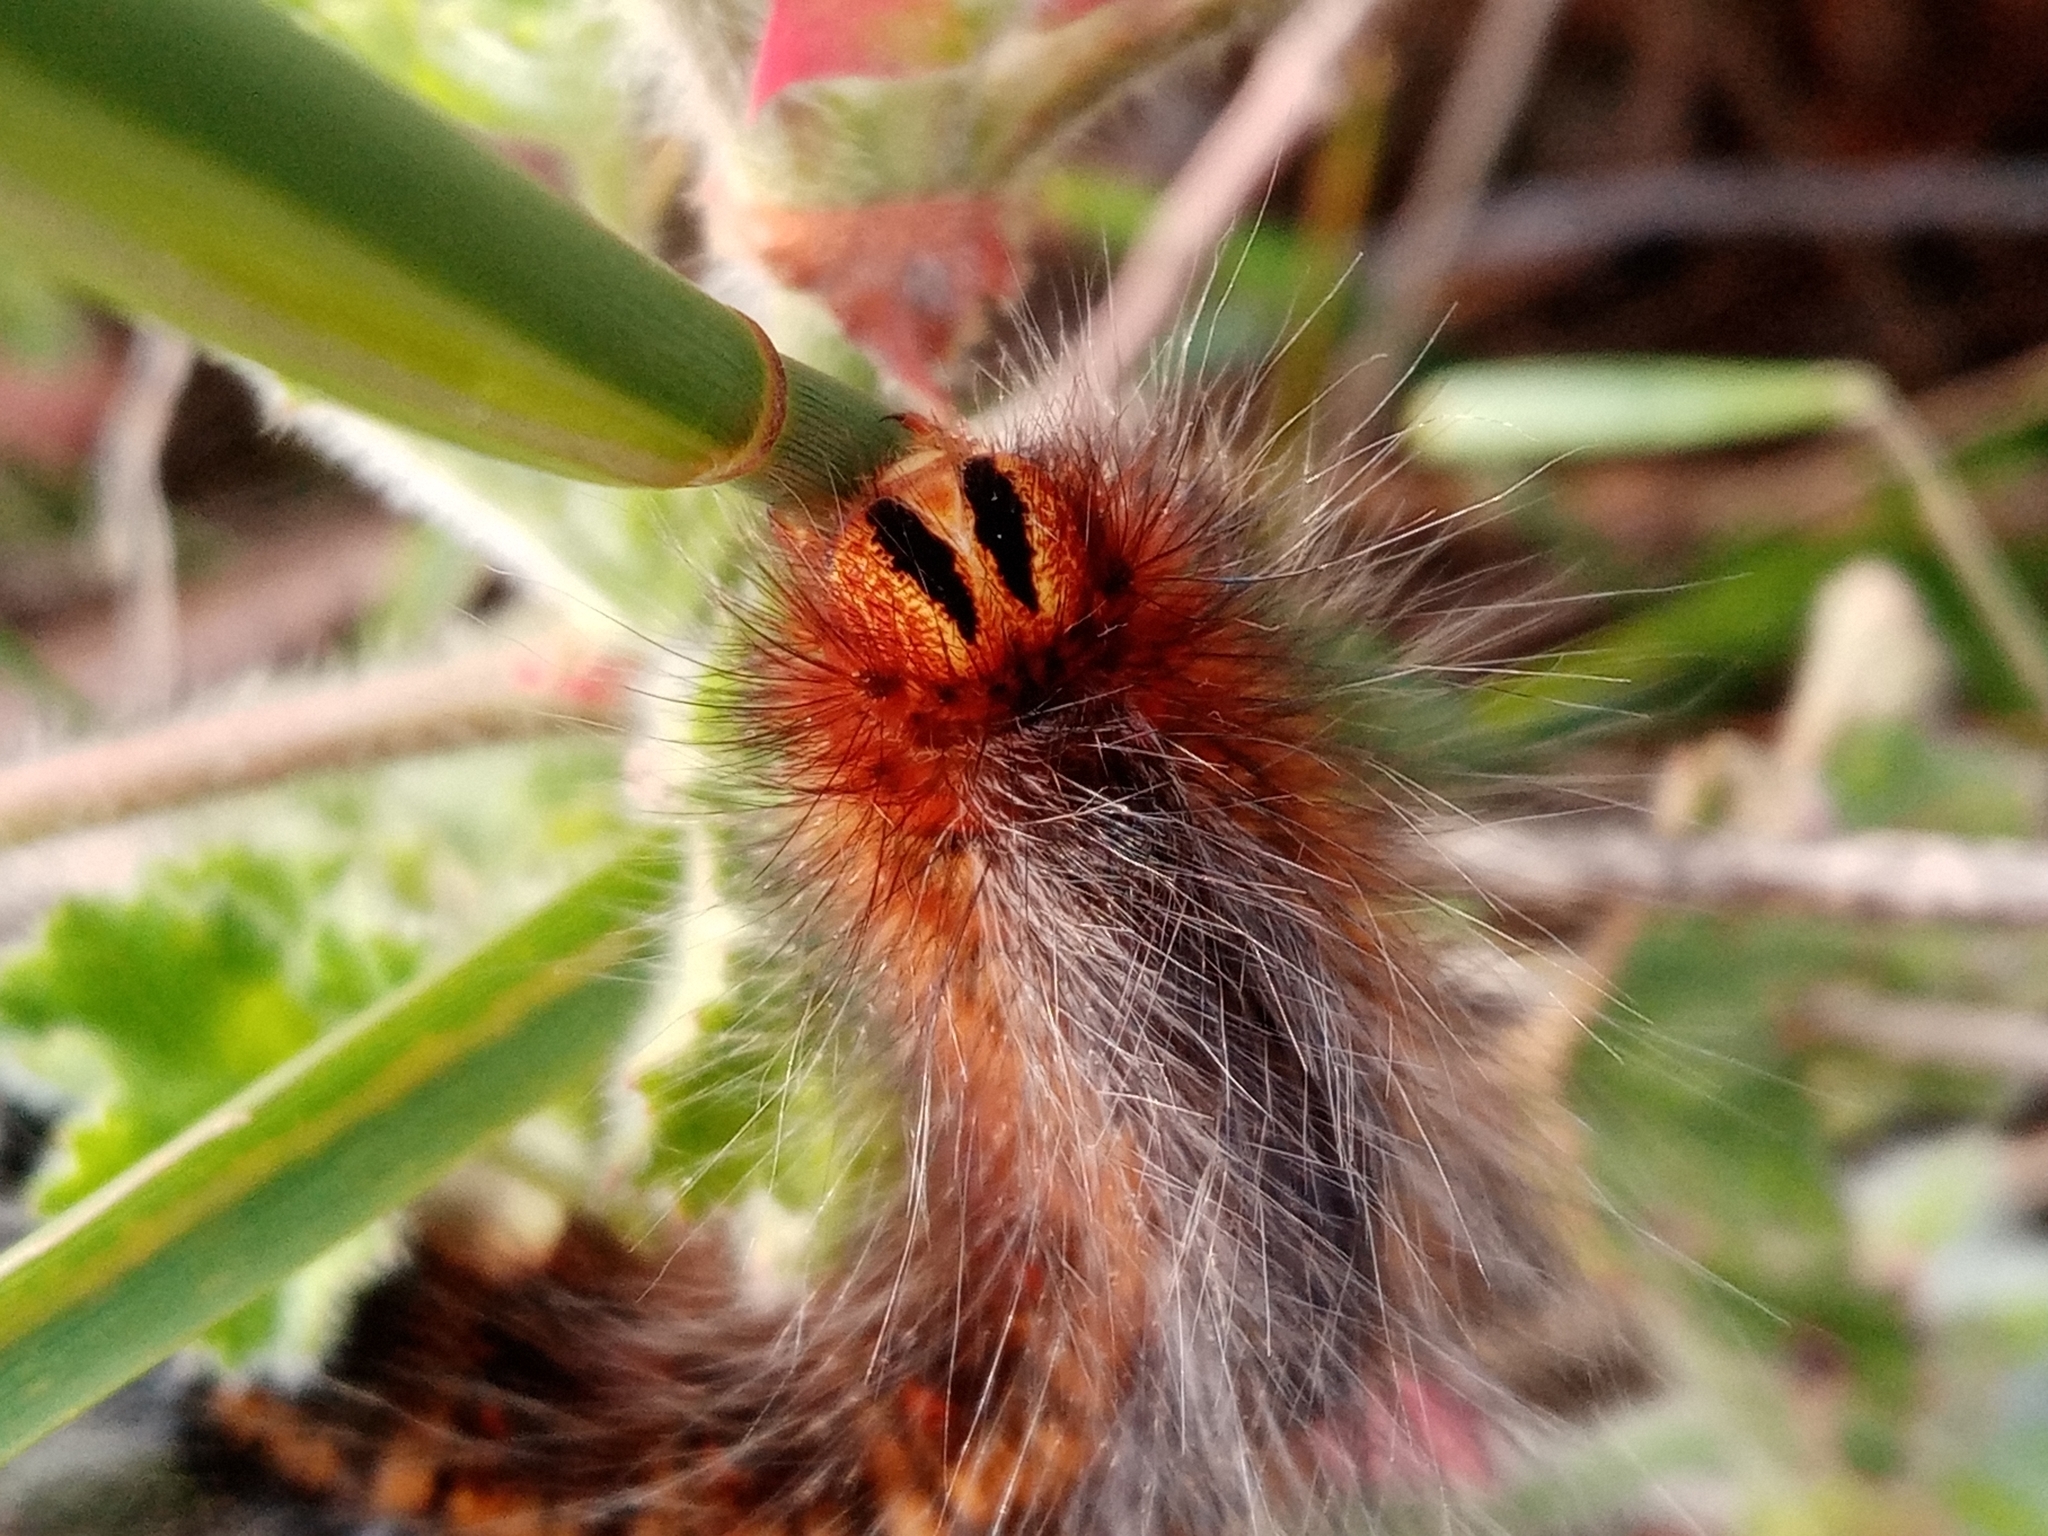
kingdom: Animalia
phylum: Arthropoda
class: Insecta
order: Lepidoptera
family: Lasiocampidae
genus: Mesocelis
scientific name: Mesocelis monticola
